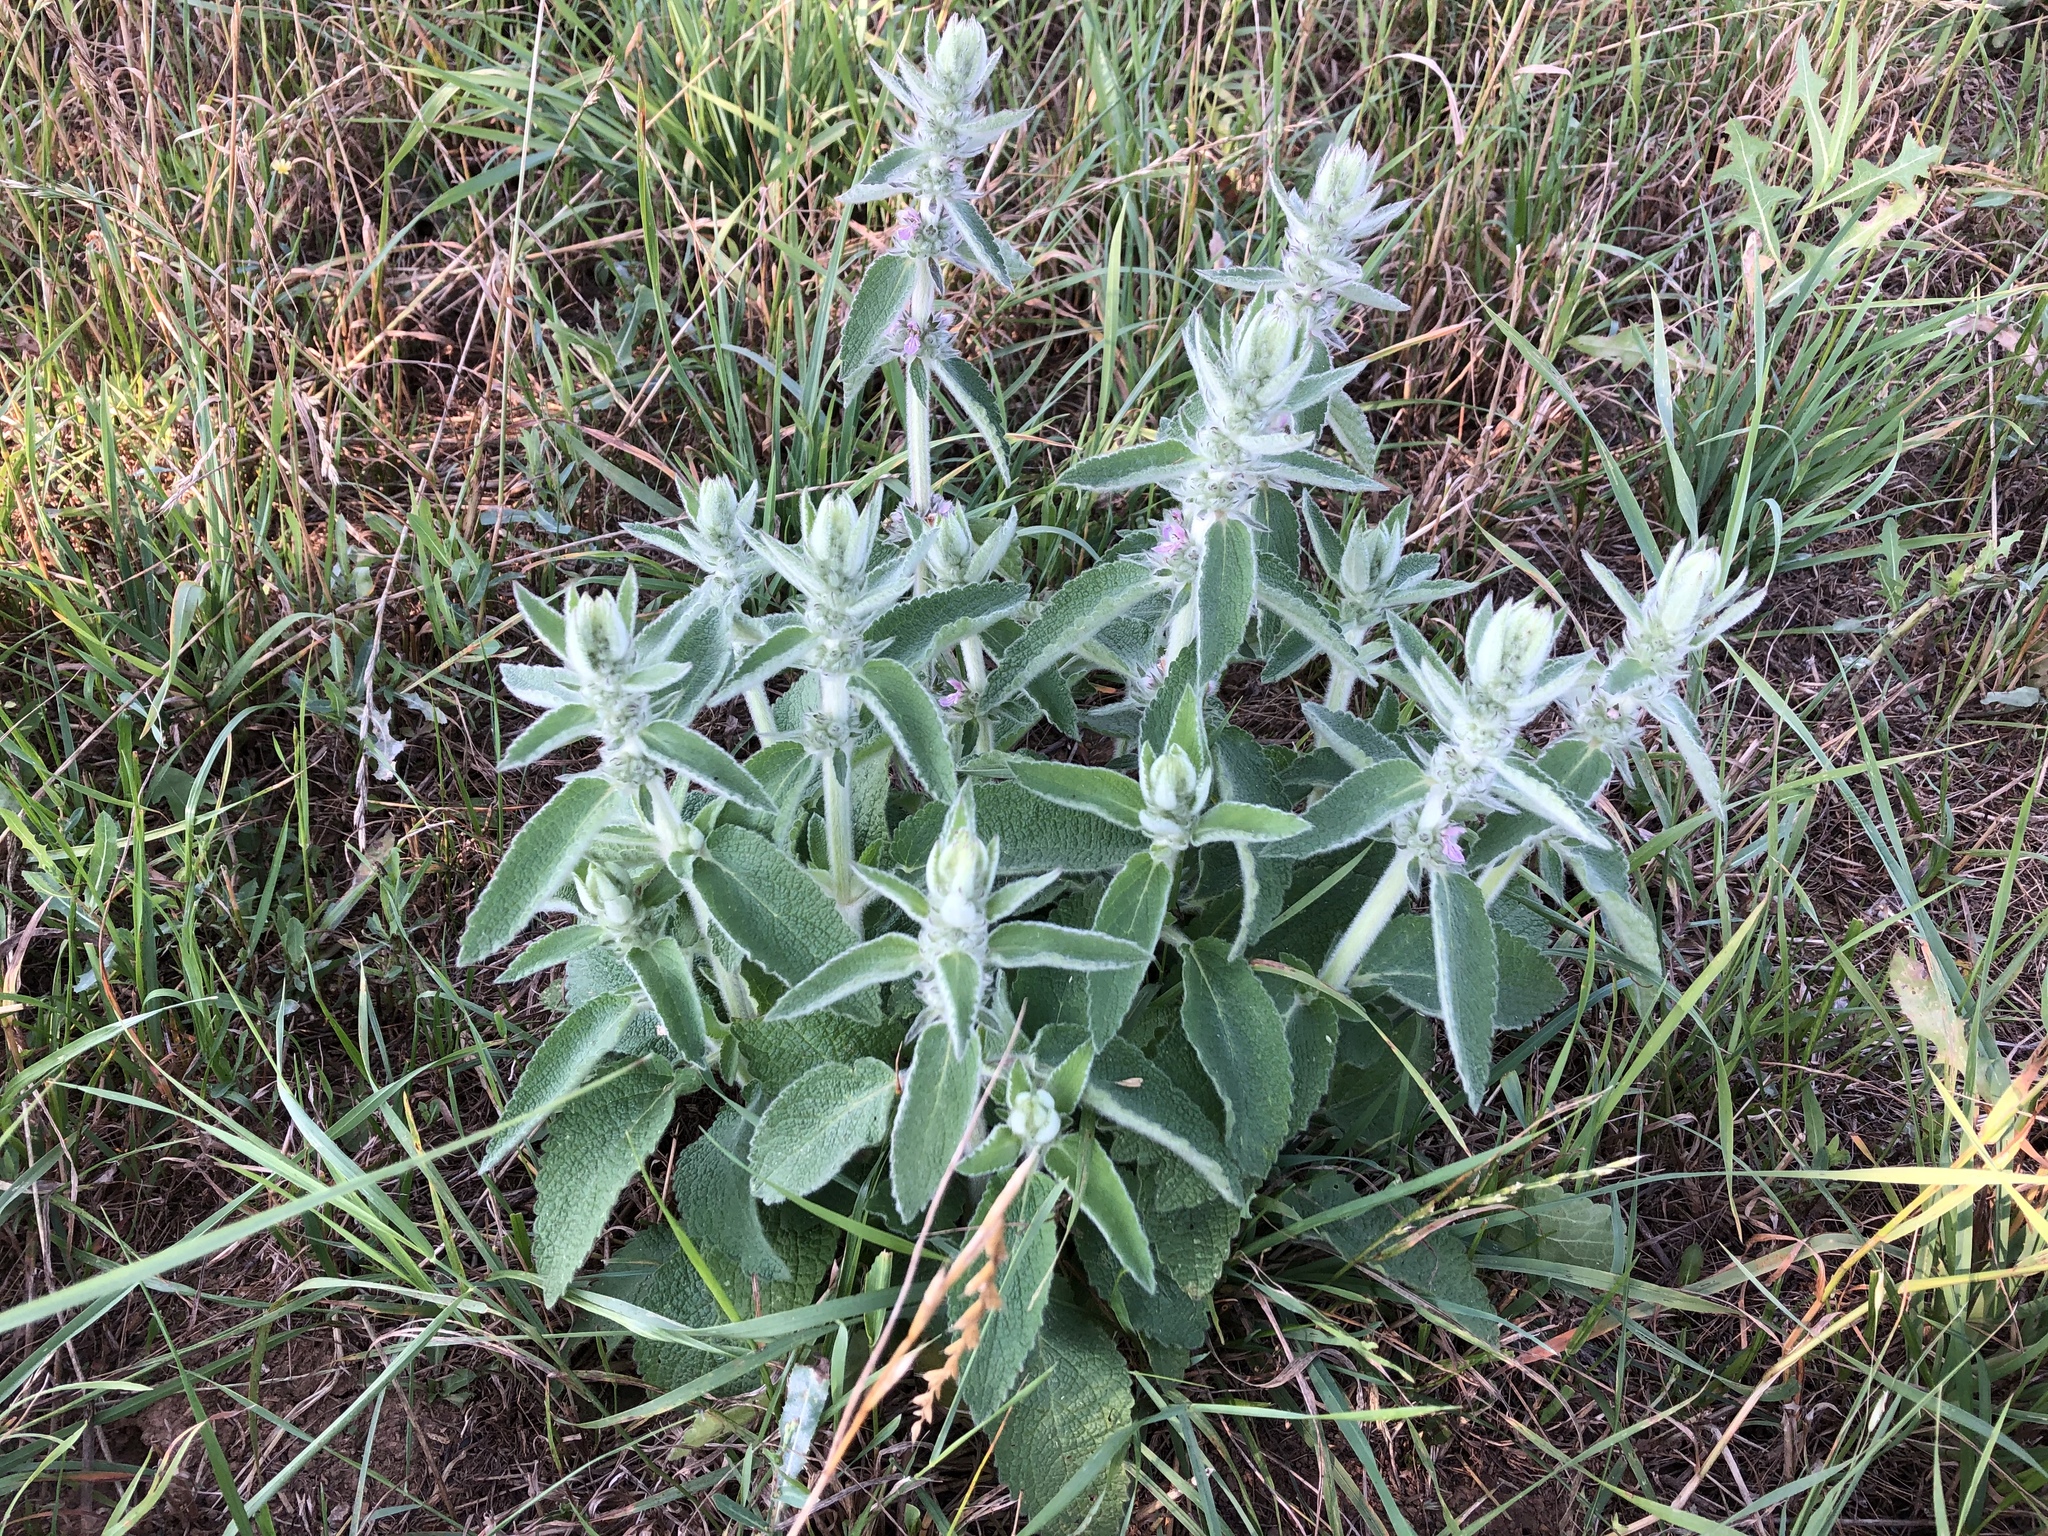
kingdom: Plantae
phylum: Tracheophyta
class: Magnoliopsida
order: Lamiales
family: Lamiaceae
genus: Stachys
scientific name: Stachys germanica
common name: Downy woundwort
